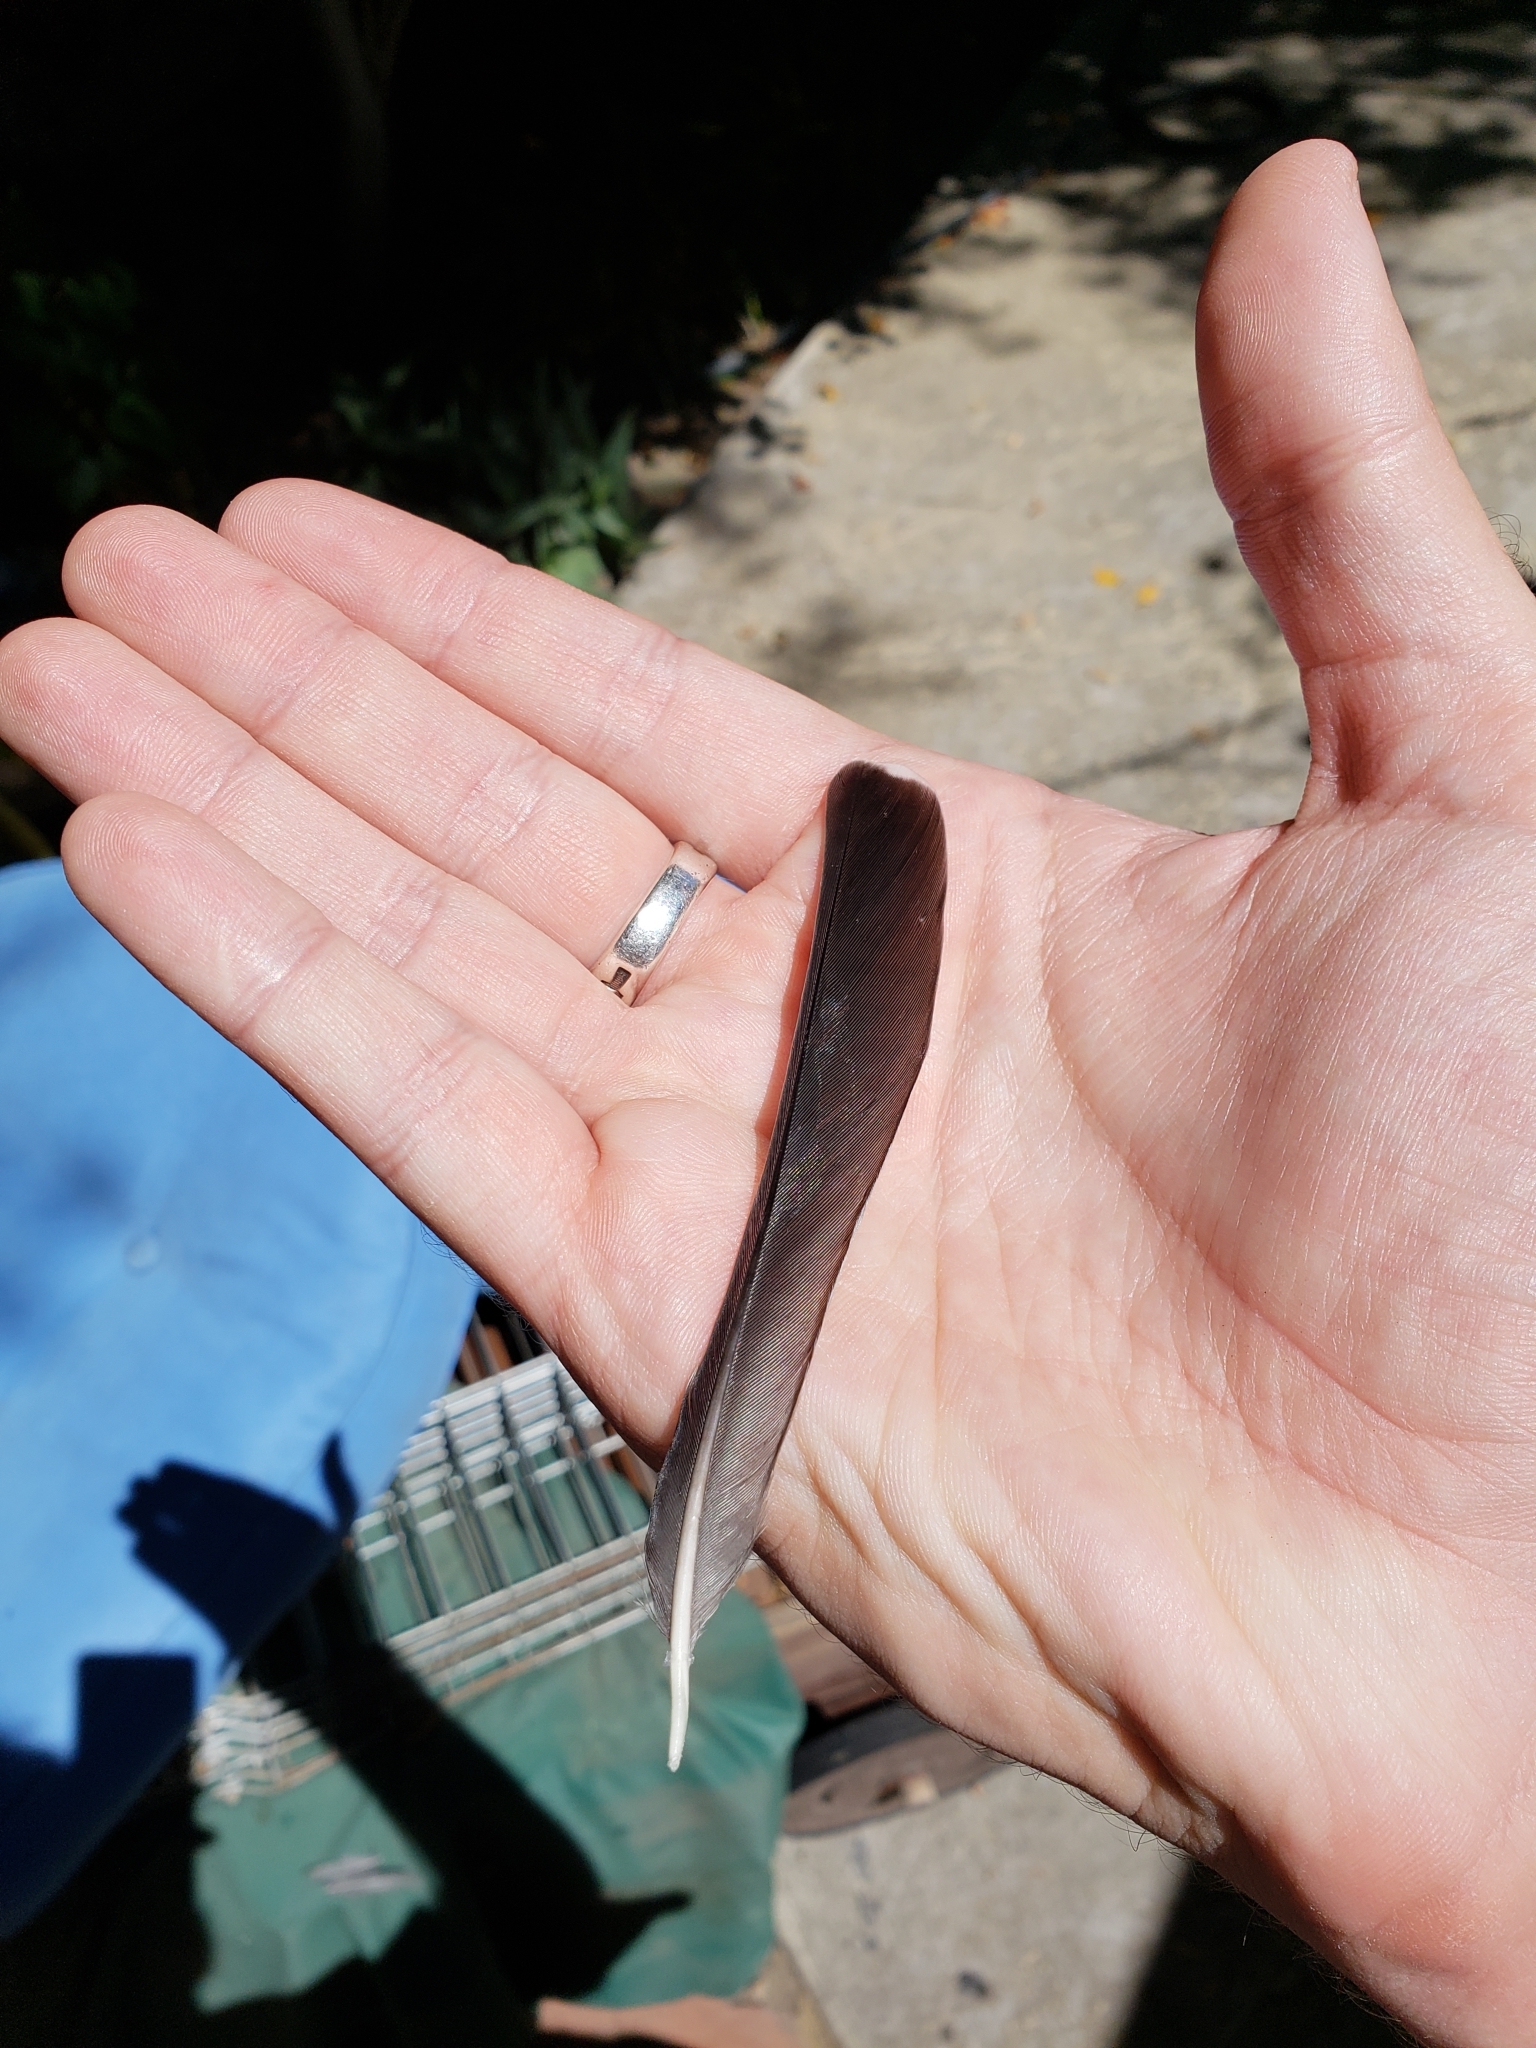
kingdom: Animalia
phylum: Chordata
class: Aves
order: Passeriformes
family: Turdidae
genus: Turdus
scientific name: Turdus migratorius
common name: American robin
